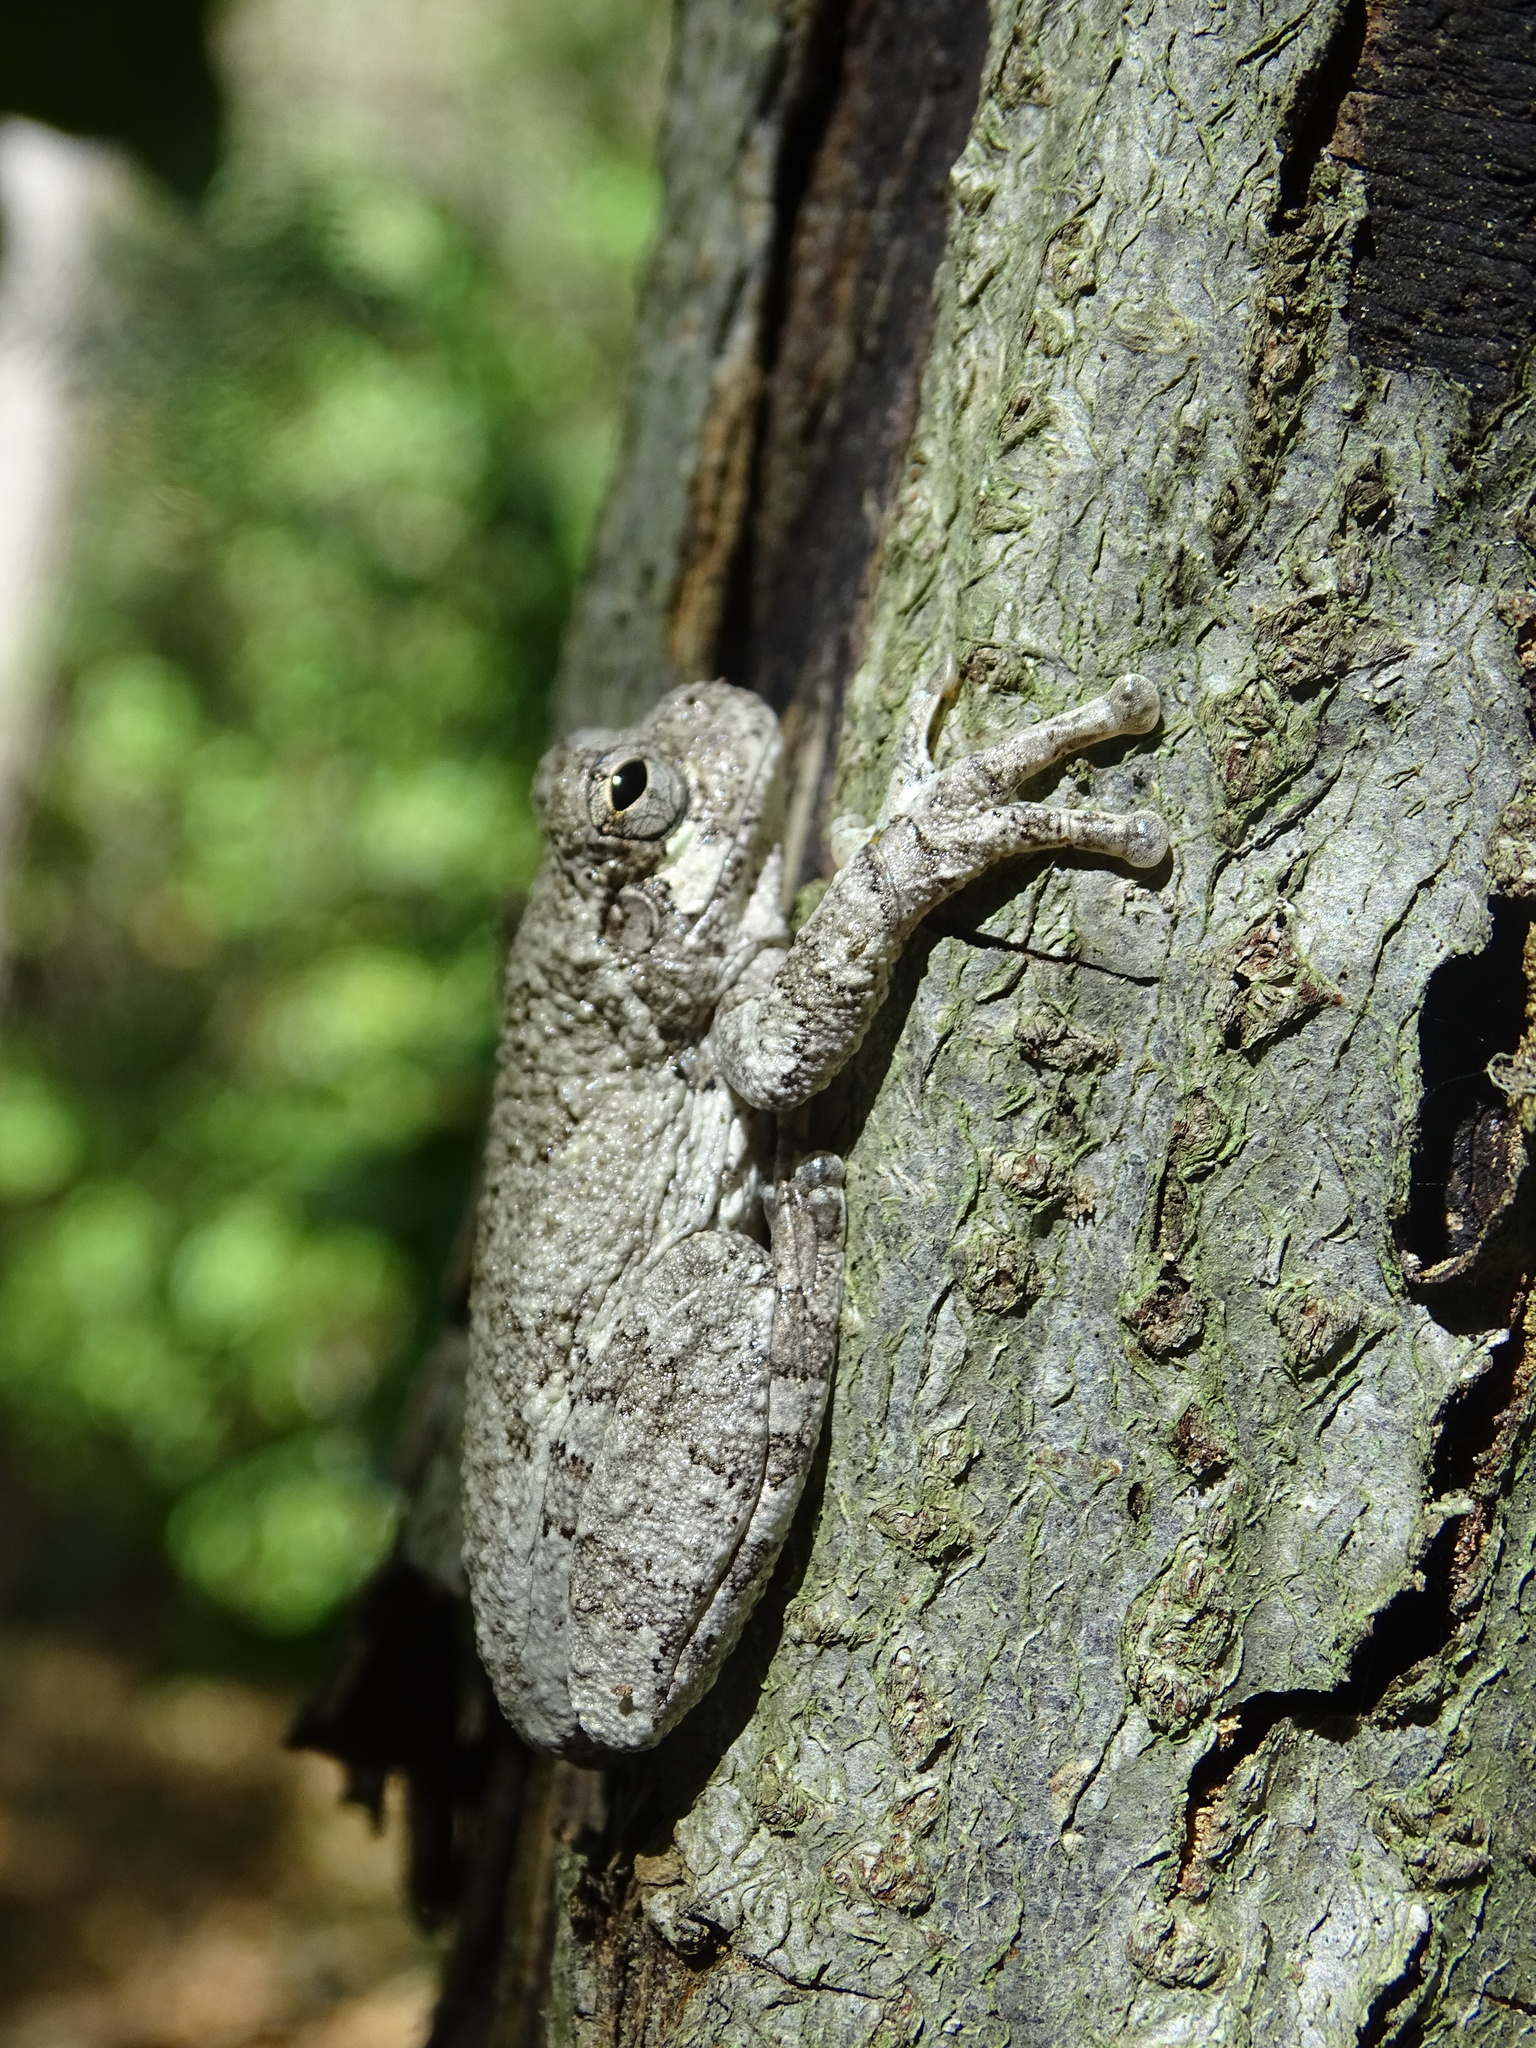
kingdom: Animalia
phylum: Chordata
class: Amphibia
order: Anura
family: Hylidae
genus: Dryophytes
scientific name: Dryophytes chrysoscelis
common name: Cope's gray treefrog
